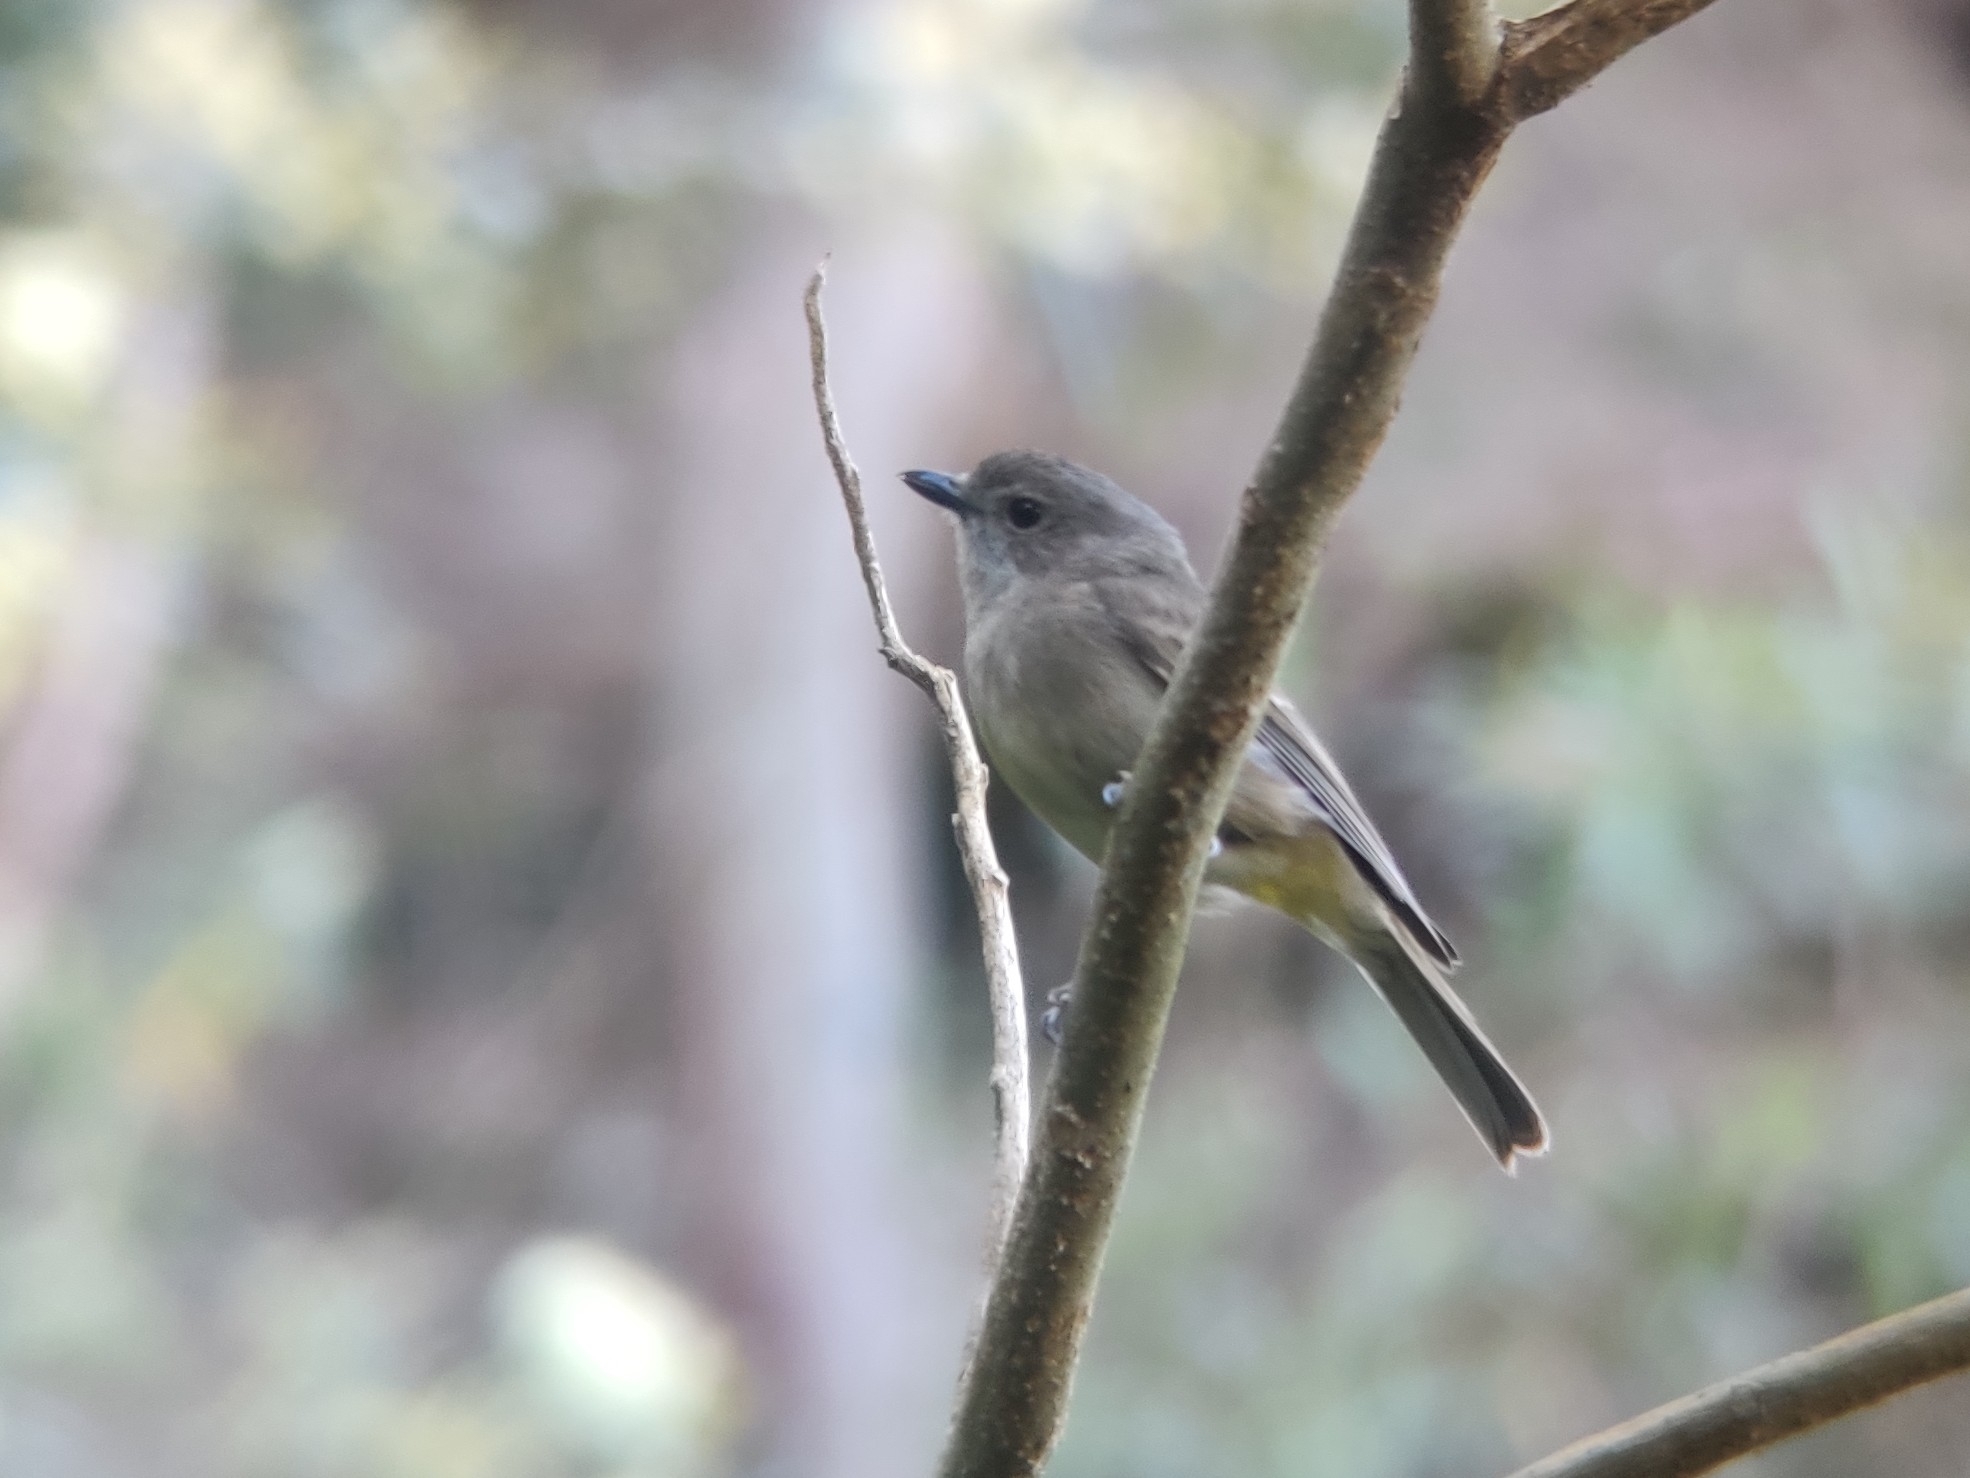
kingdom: Animalia
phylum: Chordata
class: Aves
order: Passeriformes
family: Pachycephalidae
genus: Pachycephala
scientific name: Pachycephala pectoralis
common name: Australian golden whistler
